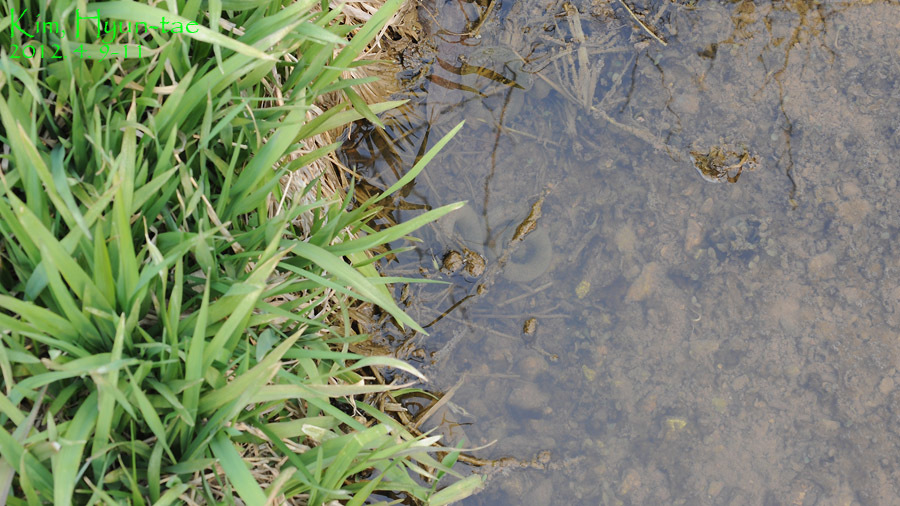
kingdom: Animalia
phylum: Chordata
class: Amphibia
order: Caudata
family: Hynobiidae
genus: Hynobius
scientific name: Hynobius leechii
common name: Gensan salamander
